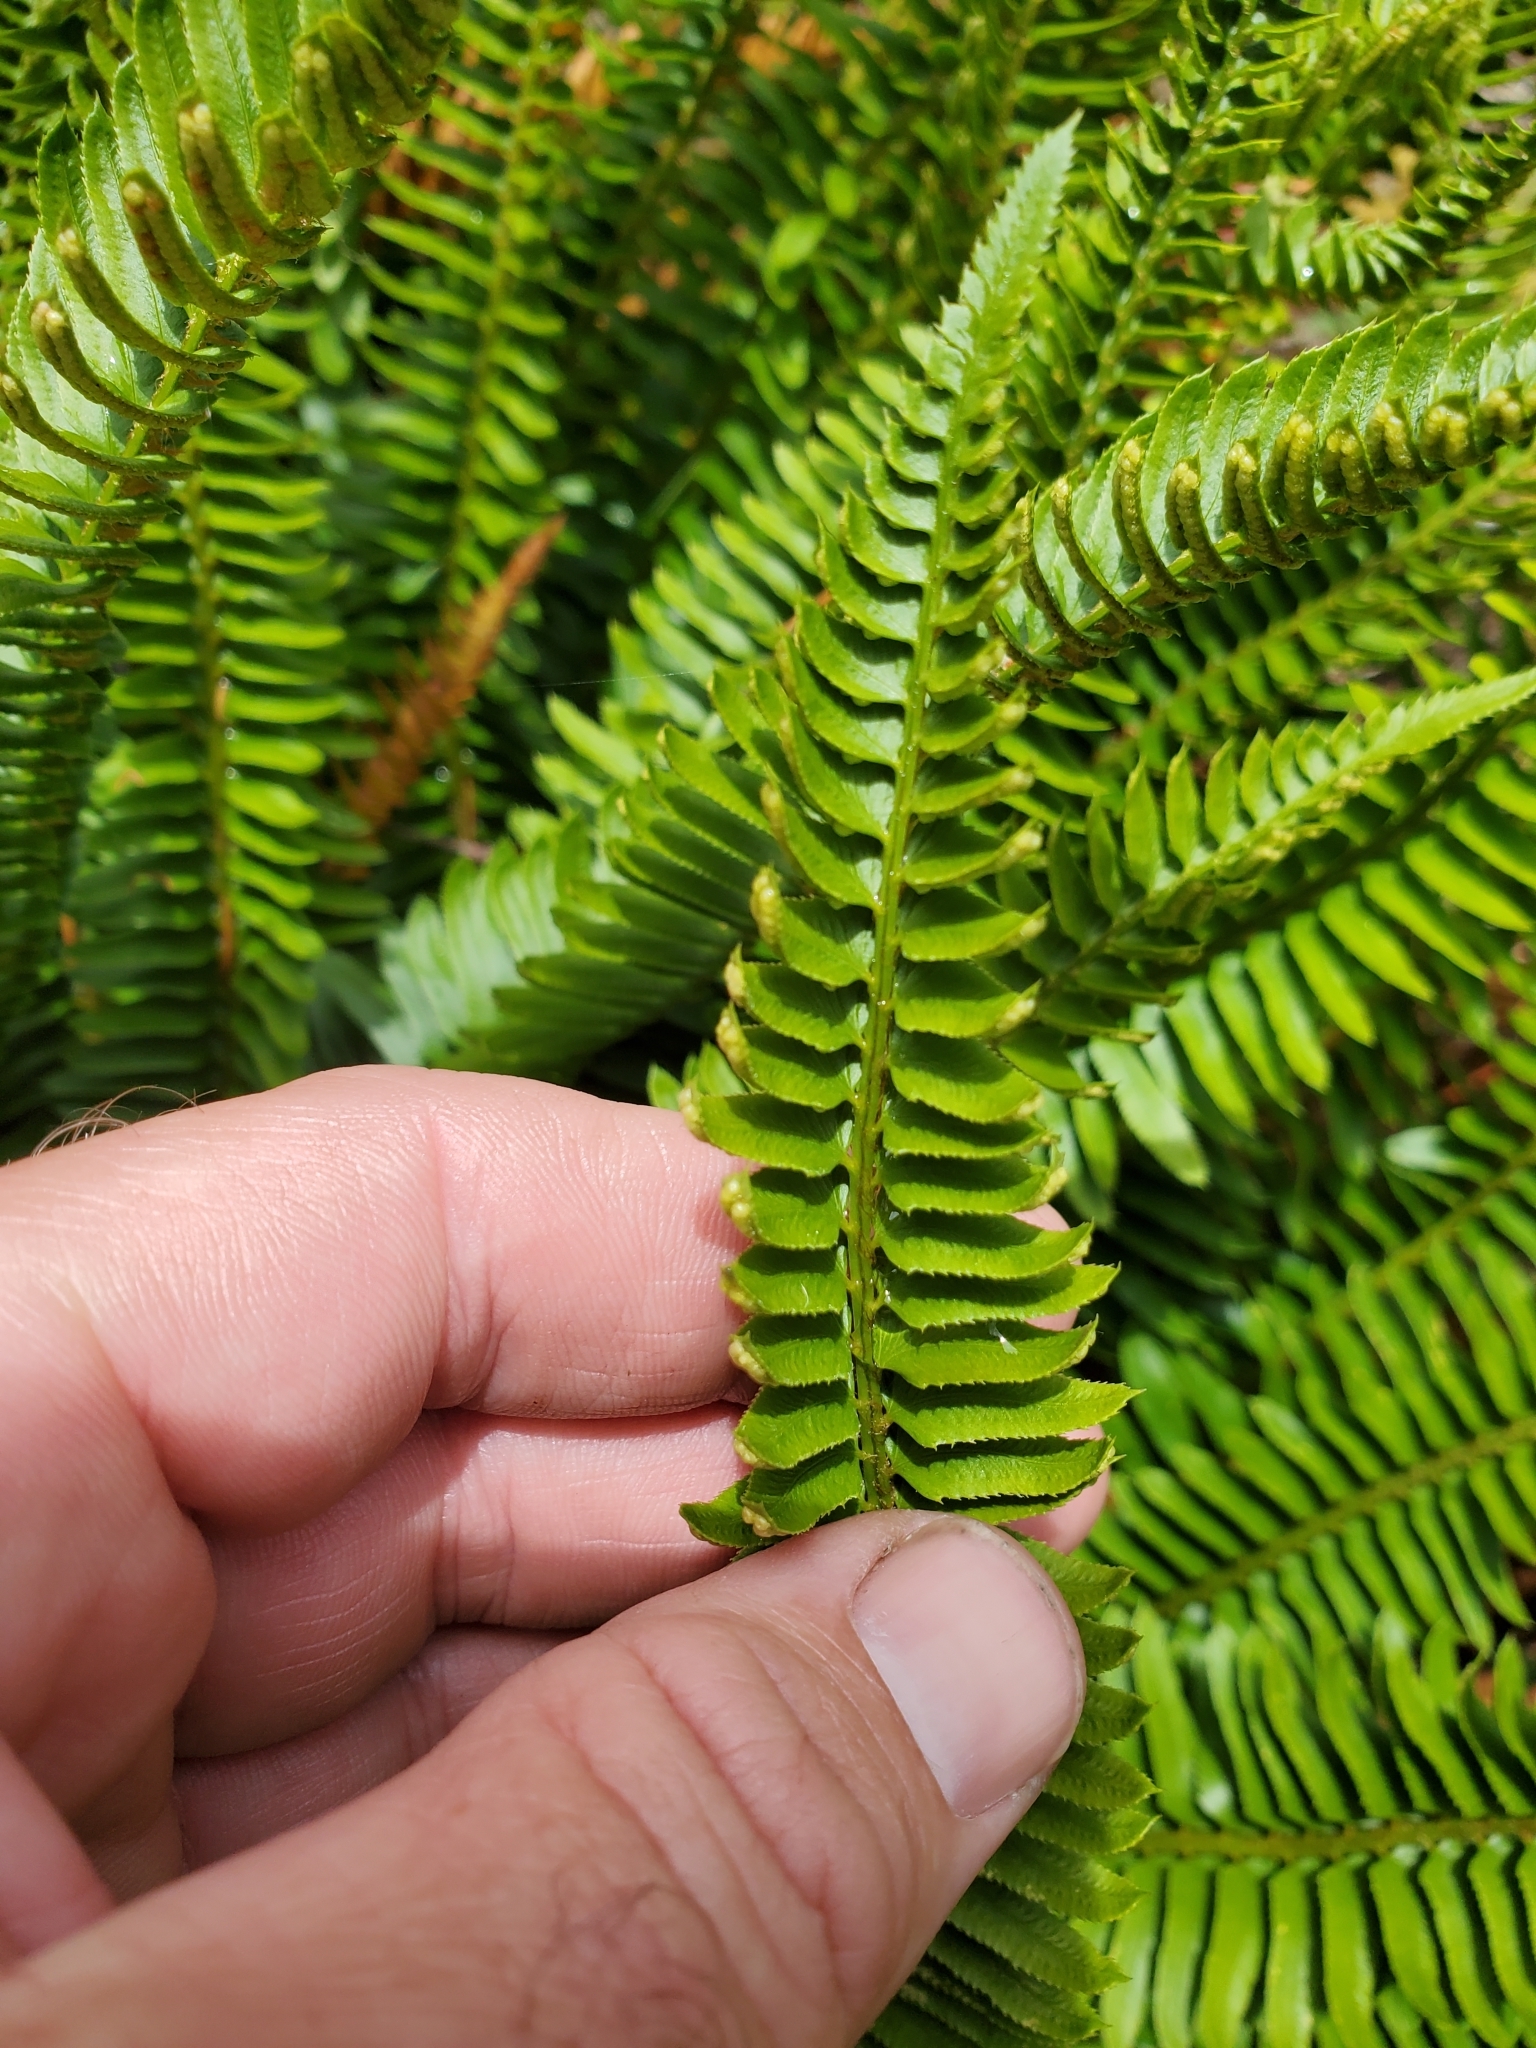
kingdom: Plantae
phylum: Tracheophyta
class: Polypodiopsida
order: Polypodiales
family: Dryopteridaceae
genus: Polystichum
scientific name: Polystichum imbricans
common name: Dwarf western sword fern
